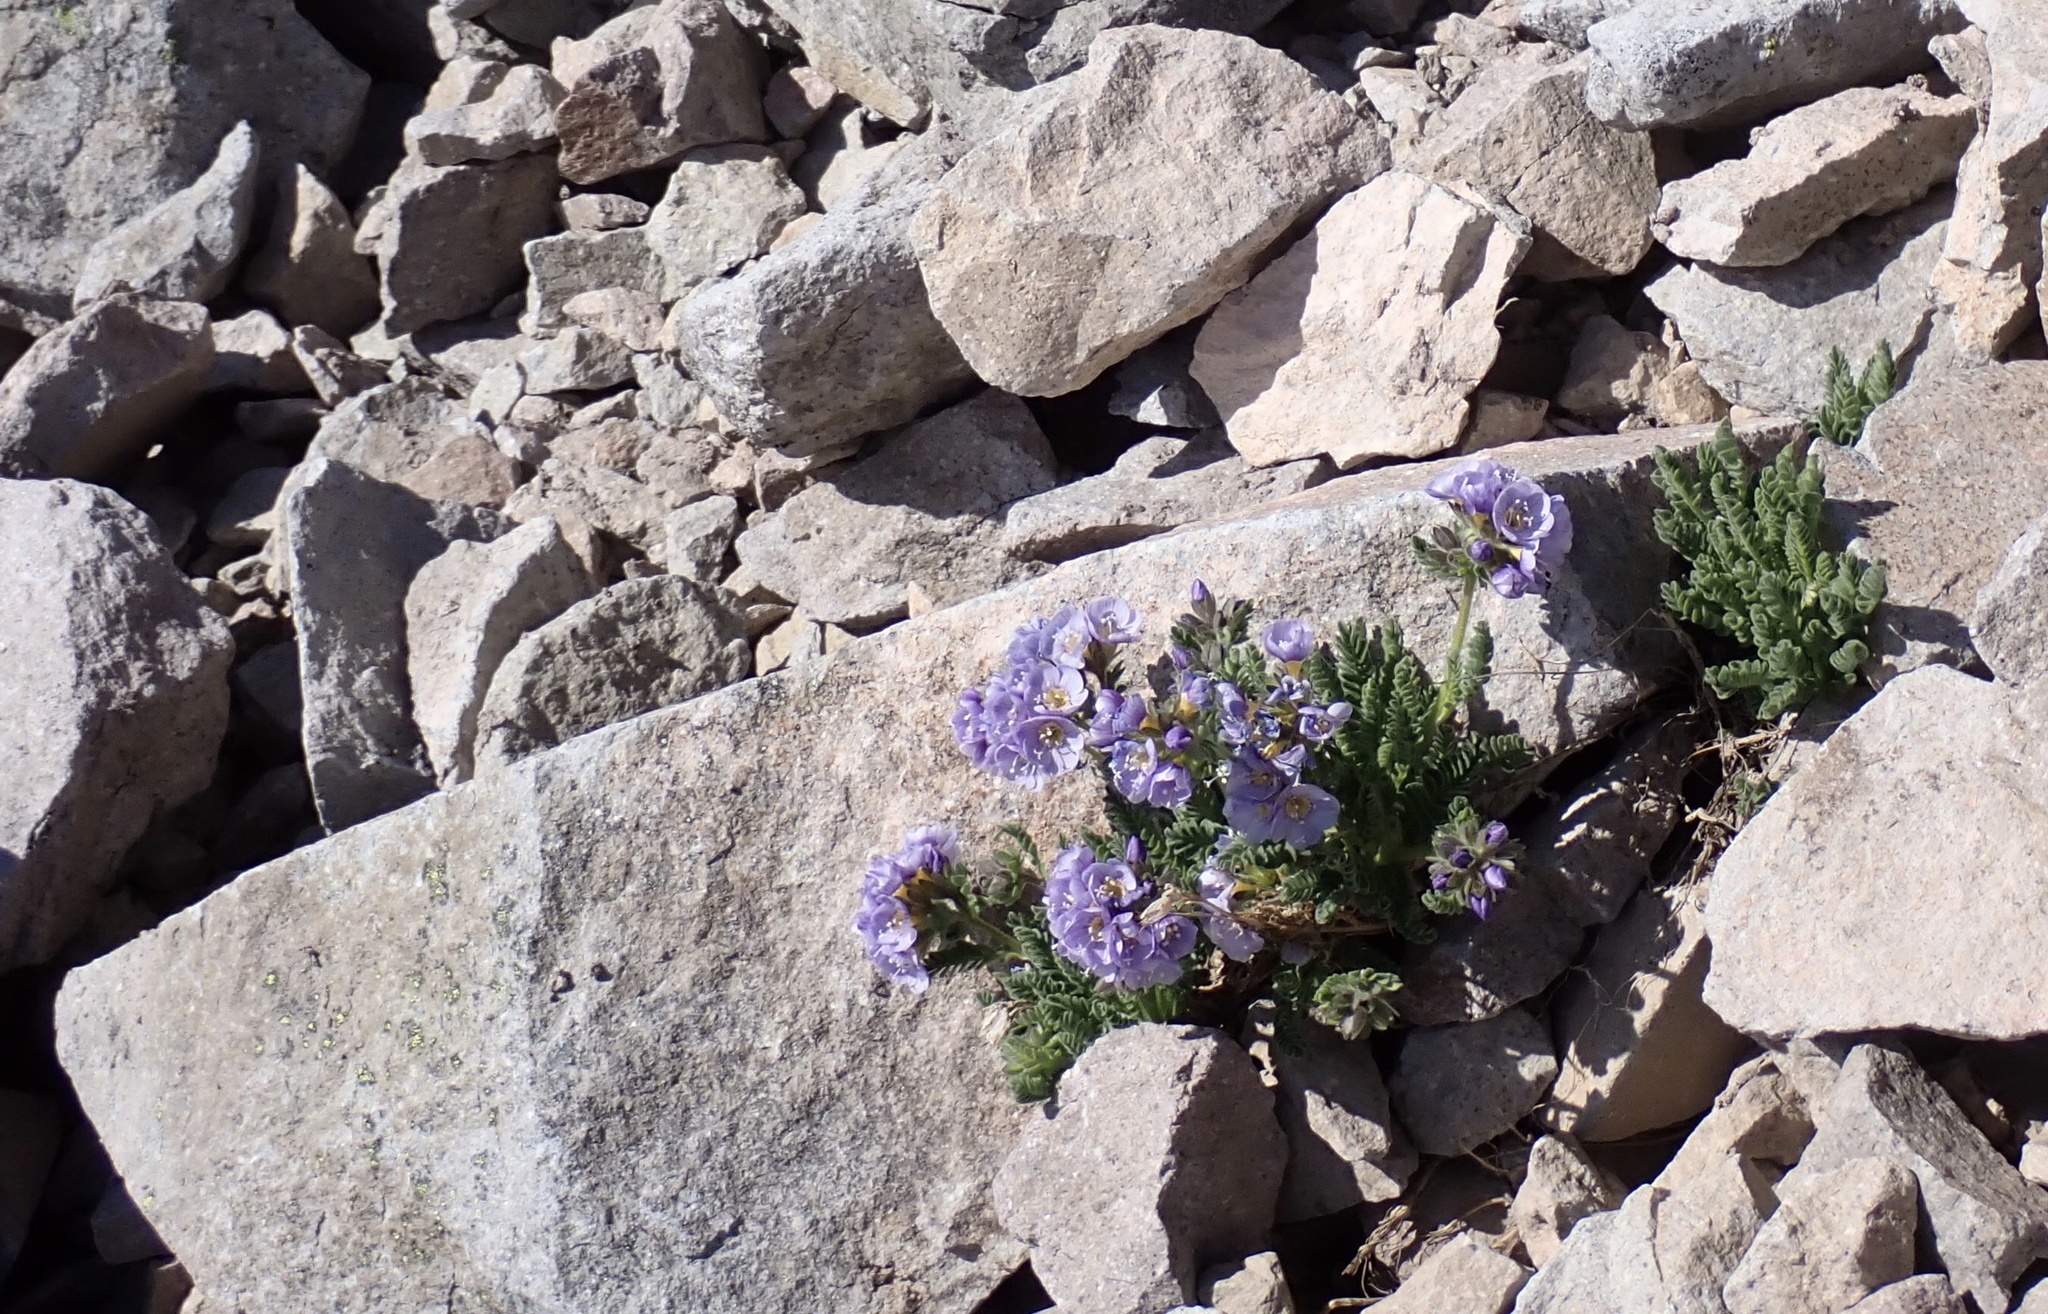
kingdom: Plantae
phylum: Tracheophyta
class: Magnoliopsida
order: Ericales
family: Polemoniaceae
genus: Polemonium
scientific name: Polemonium elegans
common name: Elegant jacob's-ladder
